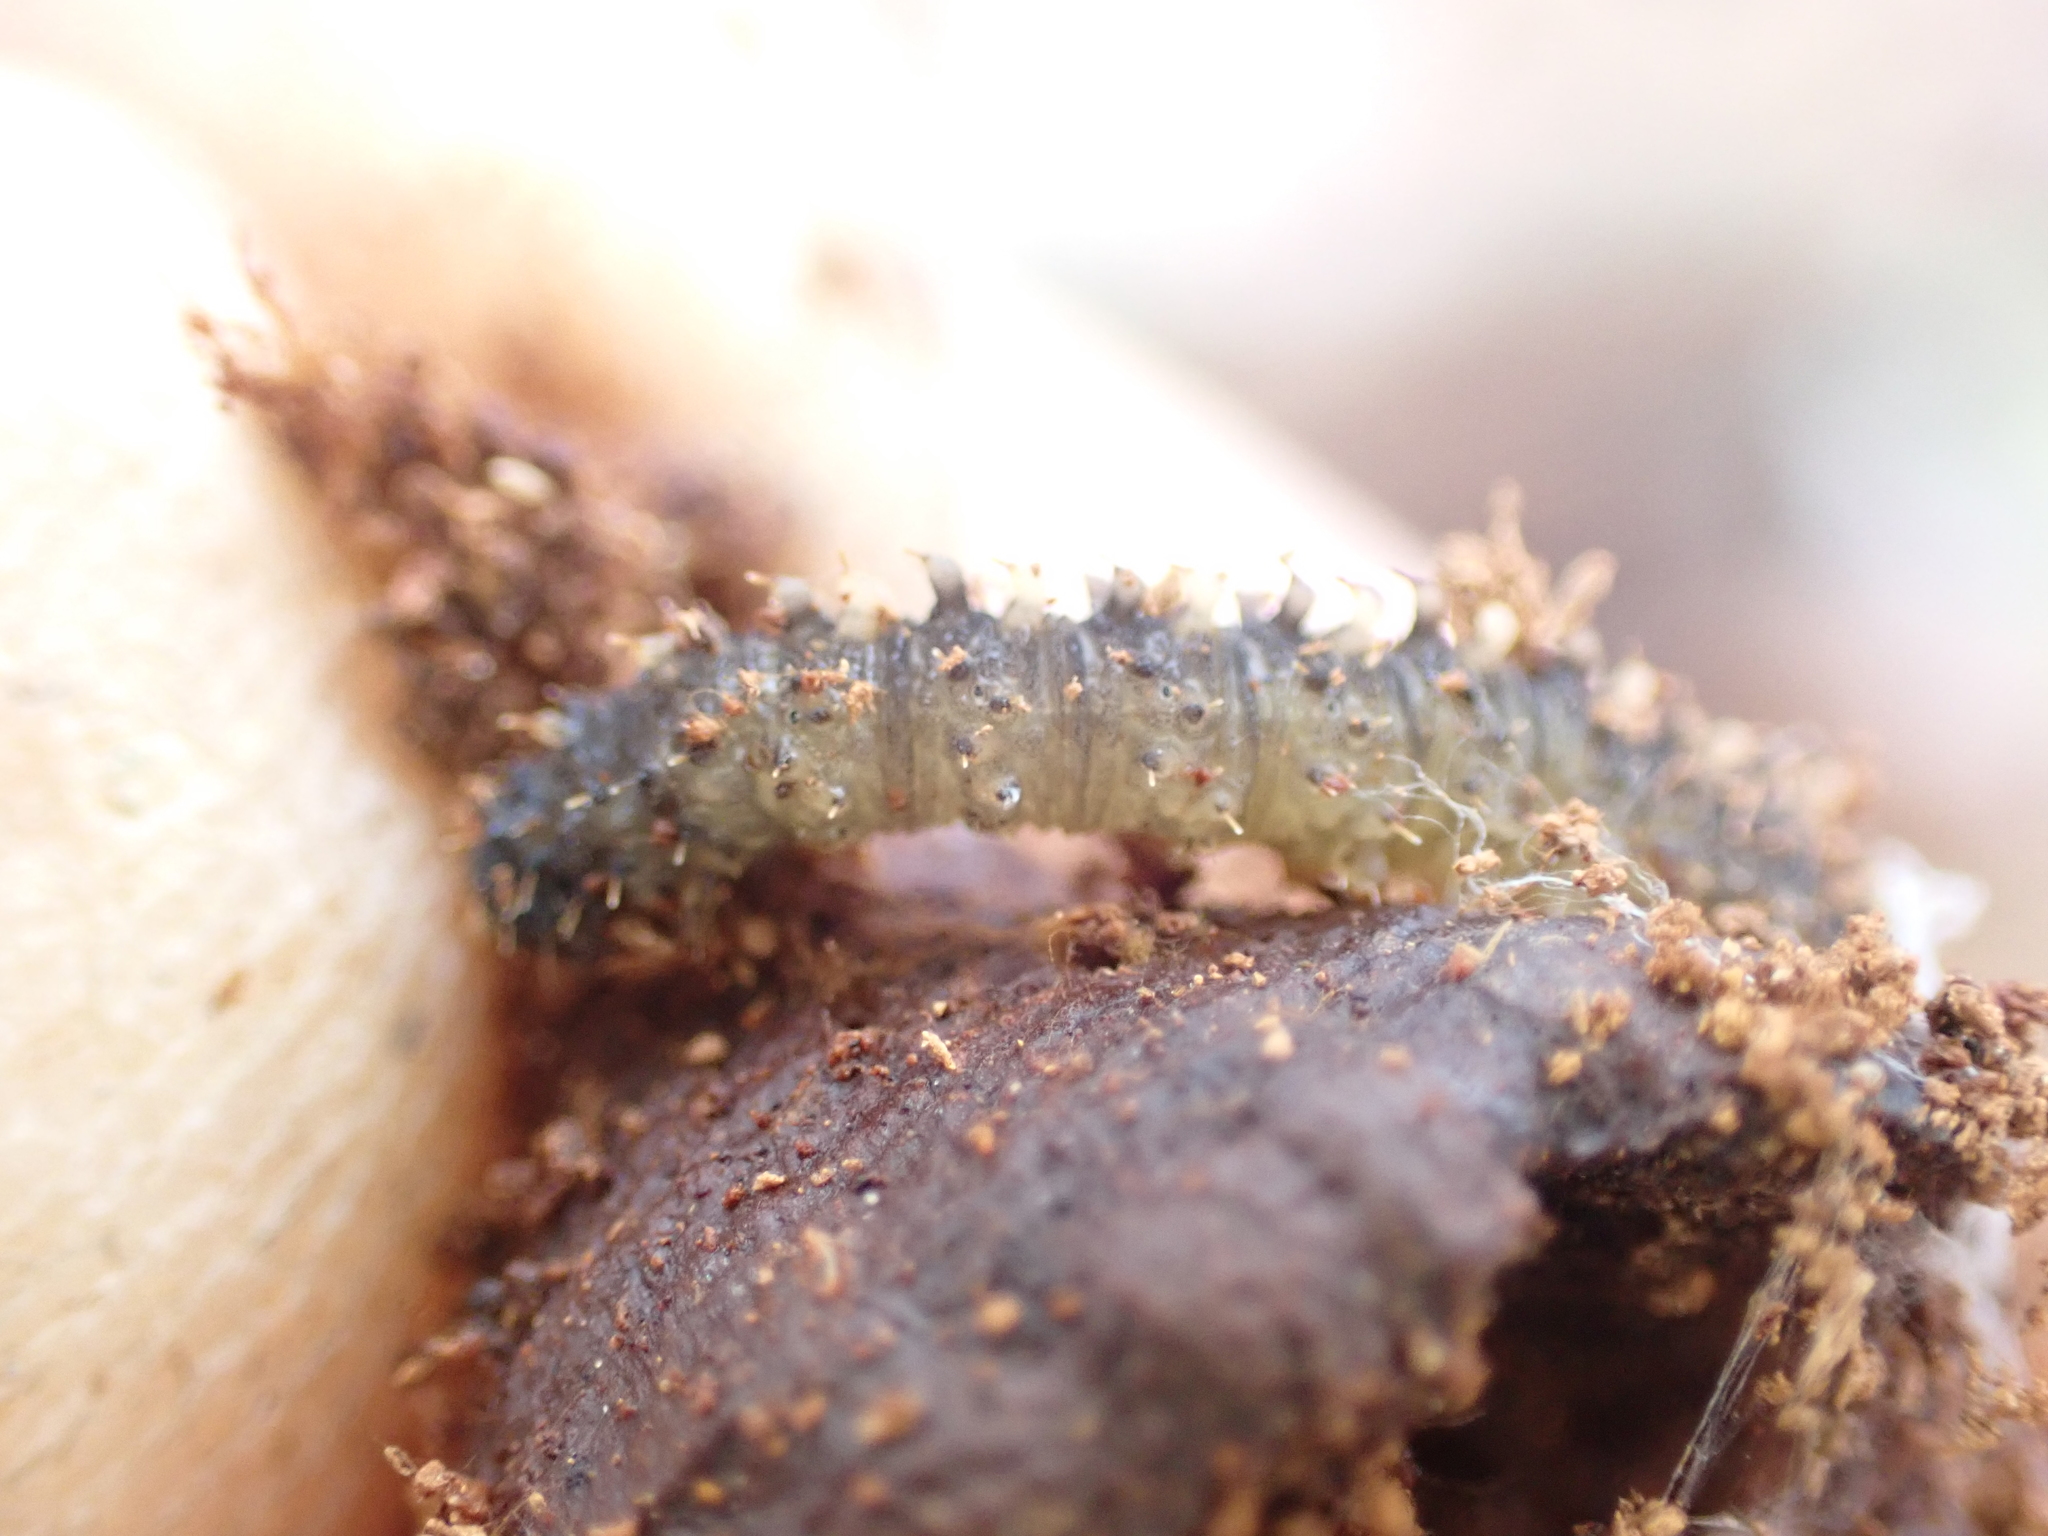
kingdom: Animalia
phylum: Arthropoda
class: Insecta
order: Lepidoptera
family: Erebidae
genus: Idia
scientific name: Idia lubricalis
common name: Twin-striped tabby
